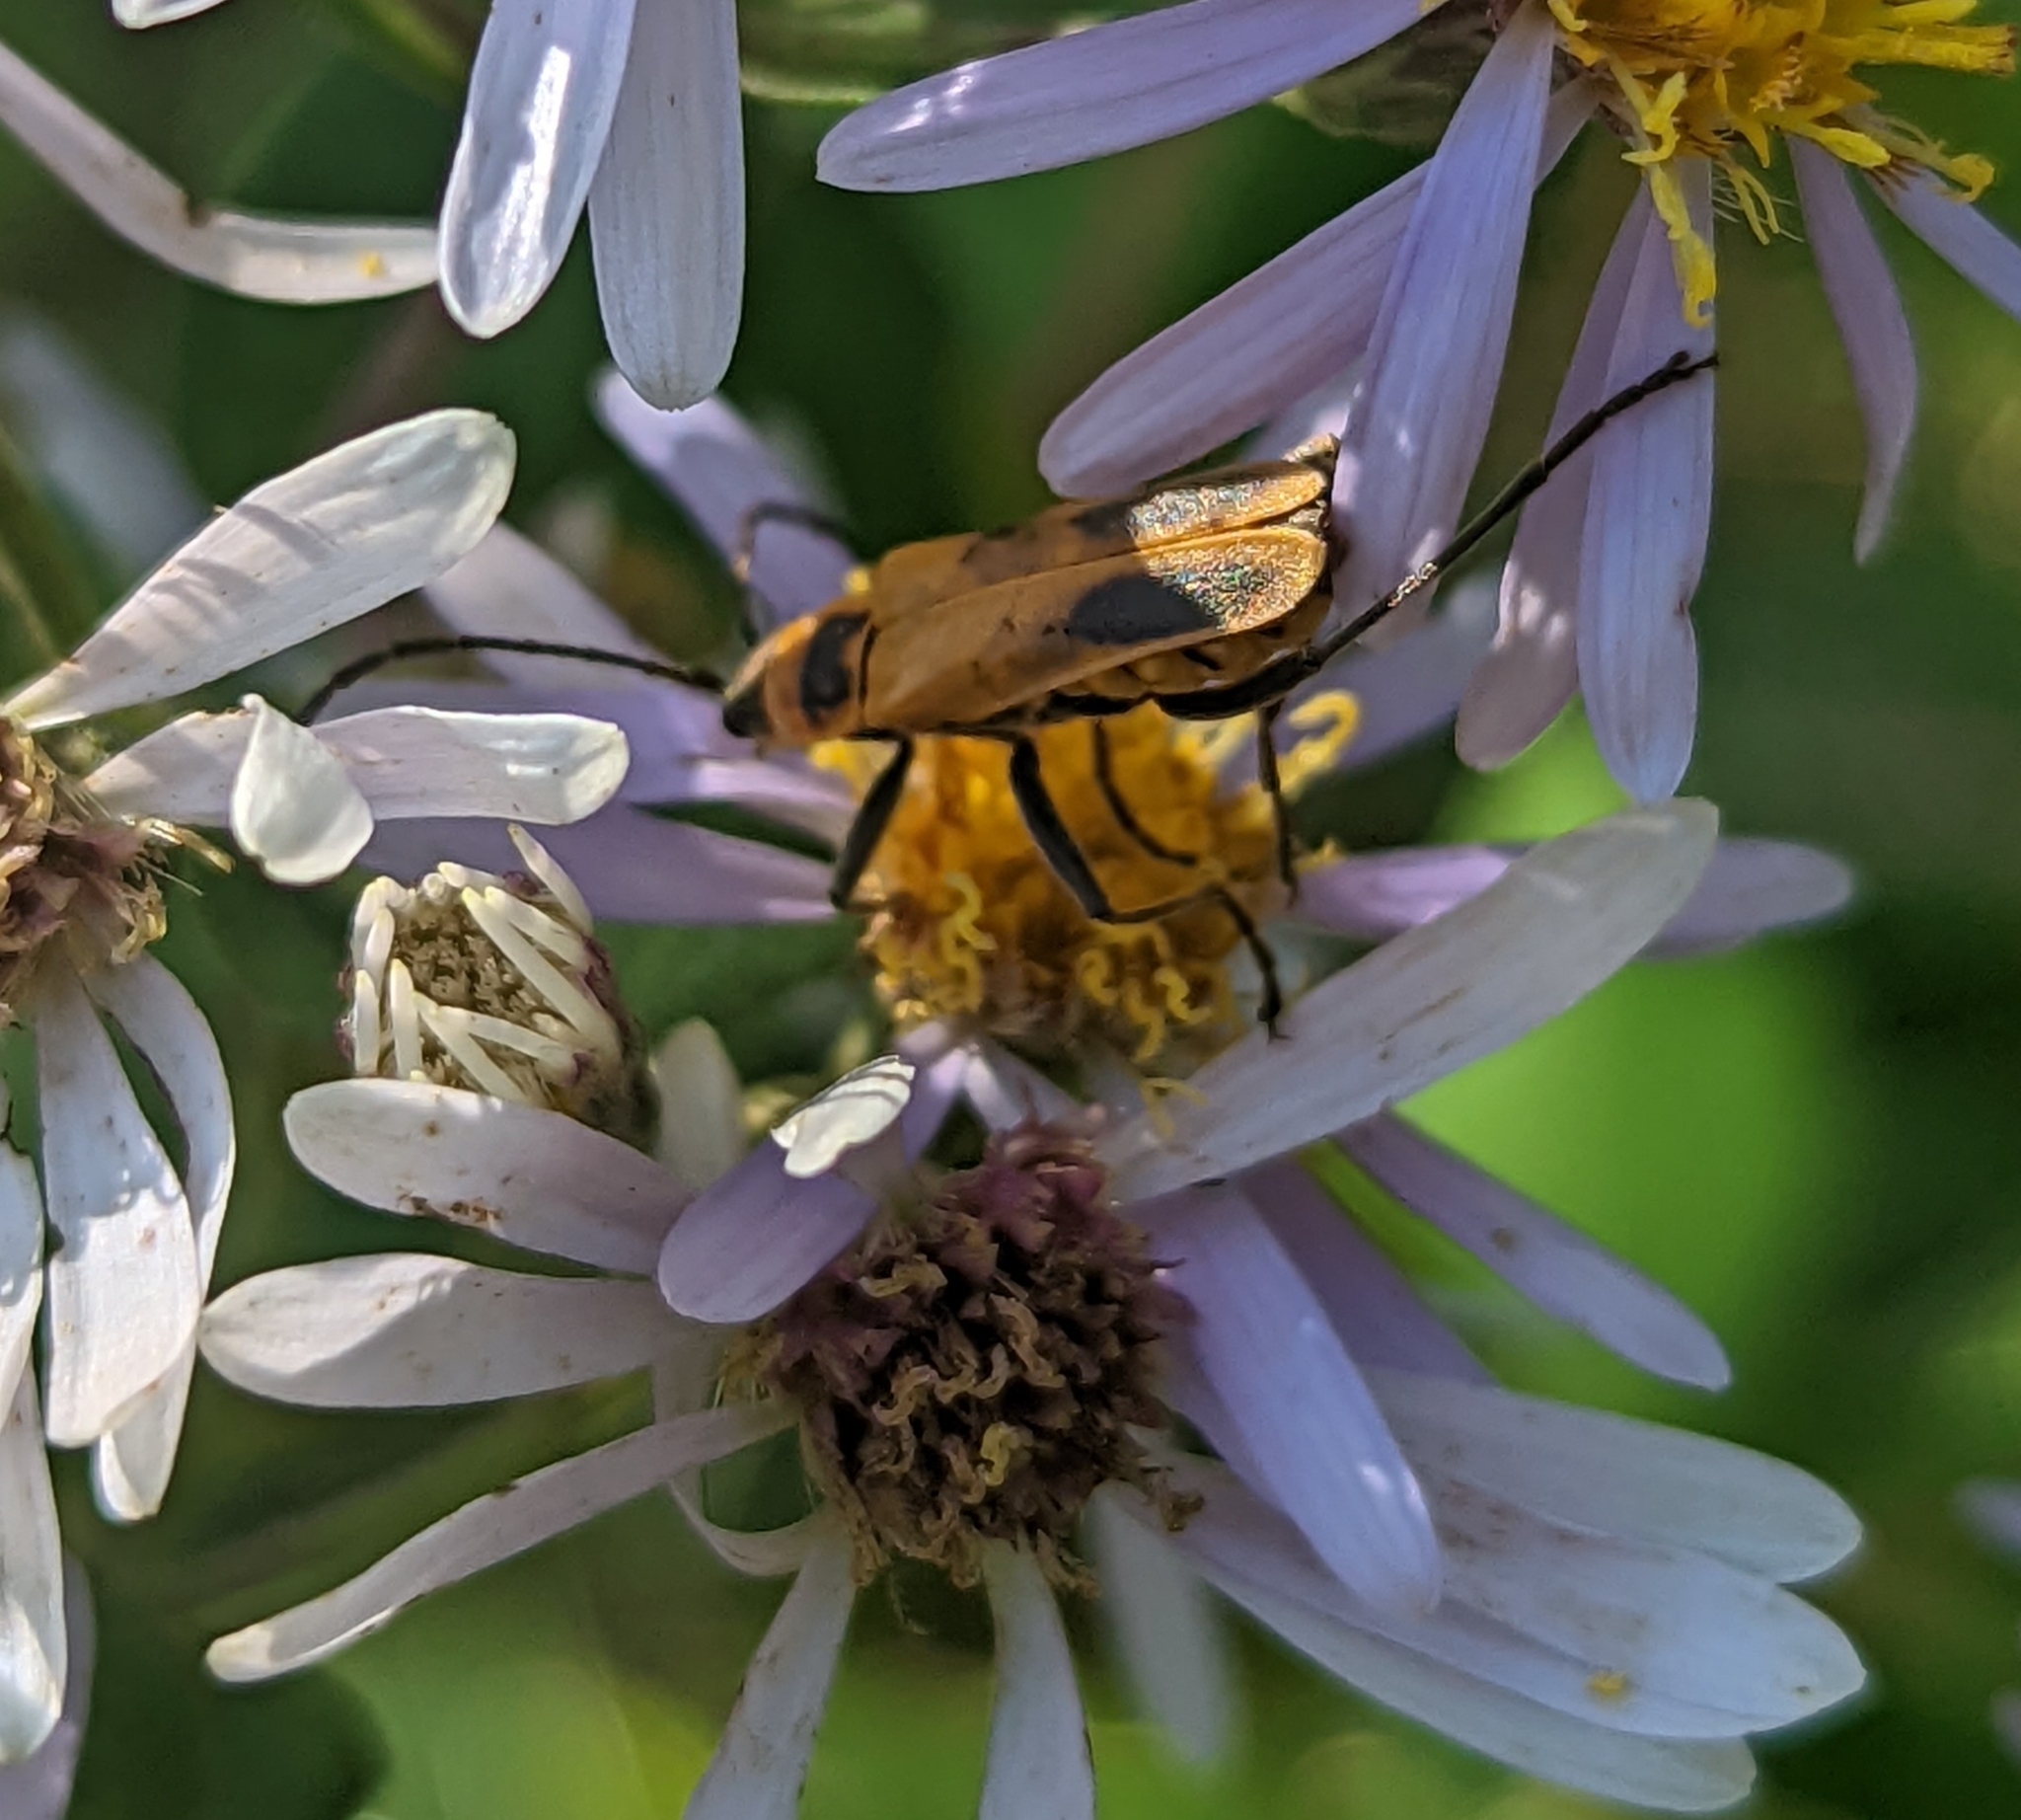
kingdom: Animalia
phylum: Arthropoda
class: Insecta
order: Coleoptera
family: Cantharidae
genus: Chauliognathus
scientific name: Chauliognathus pensylvanicus
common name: Goldenrod soldier beetle
